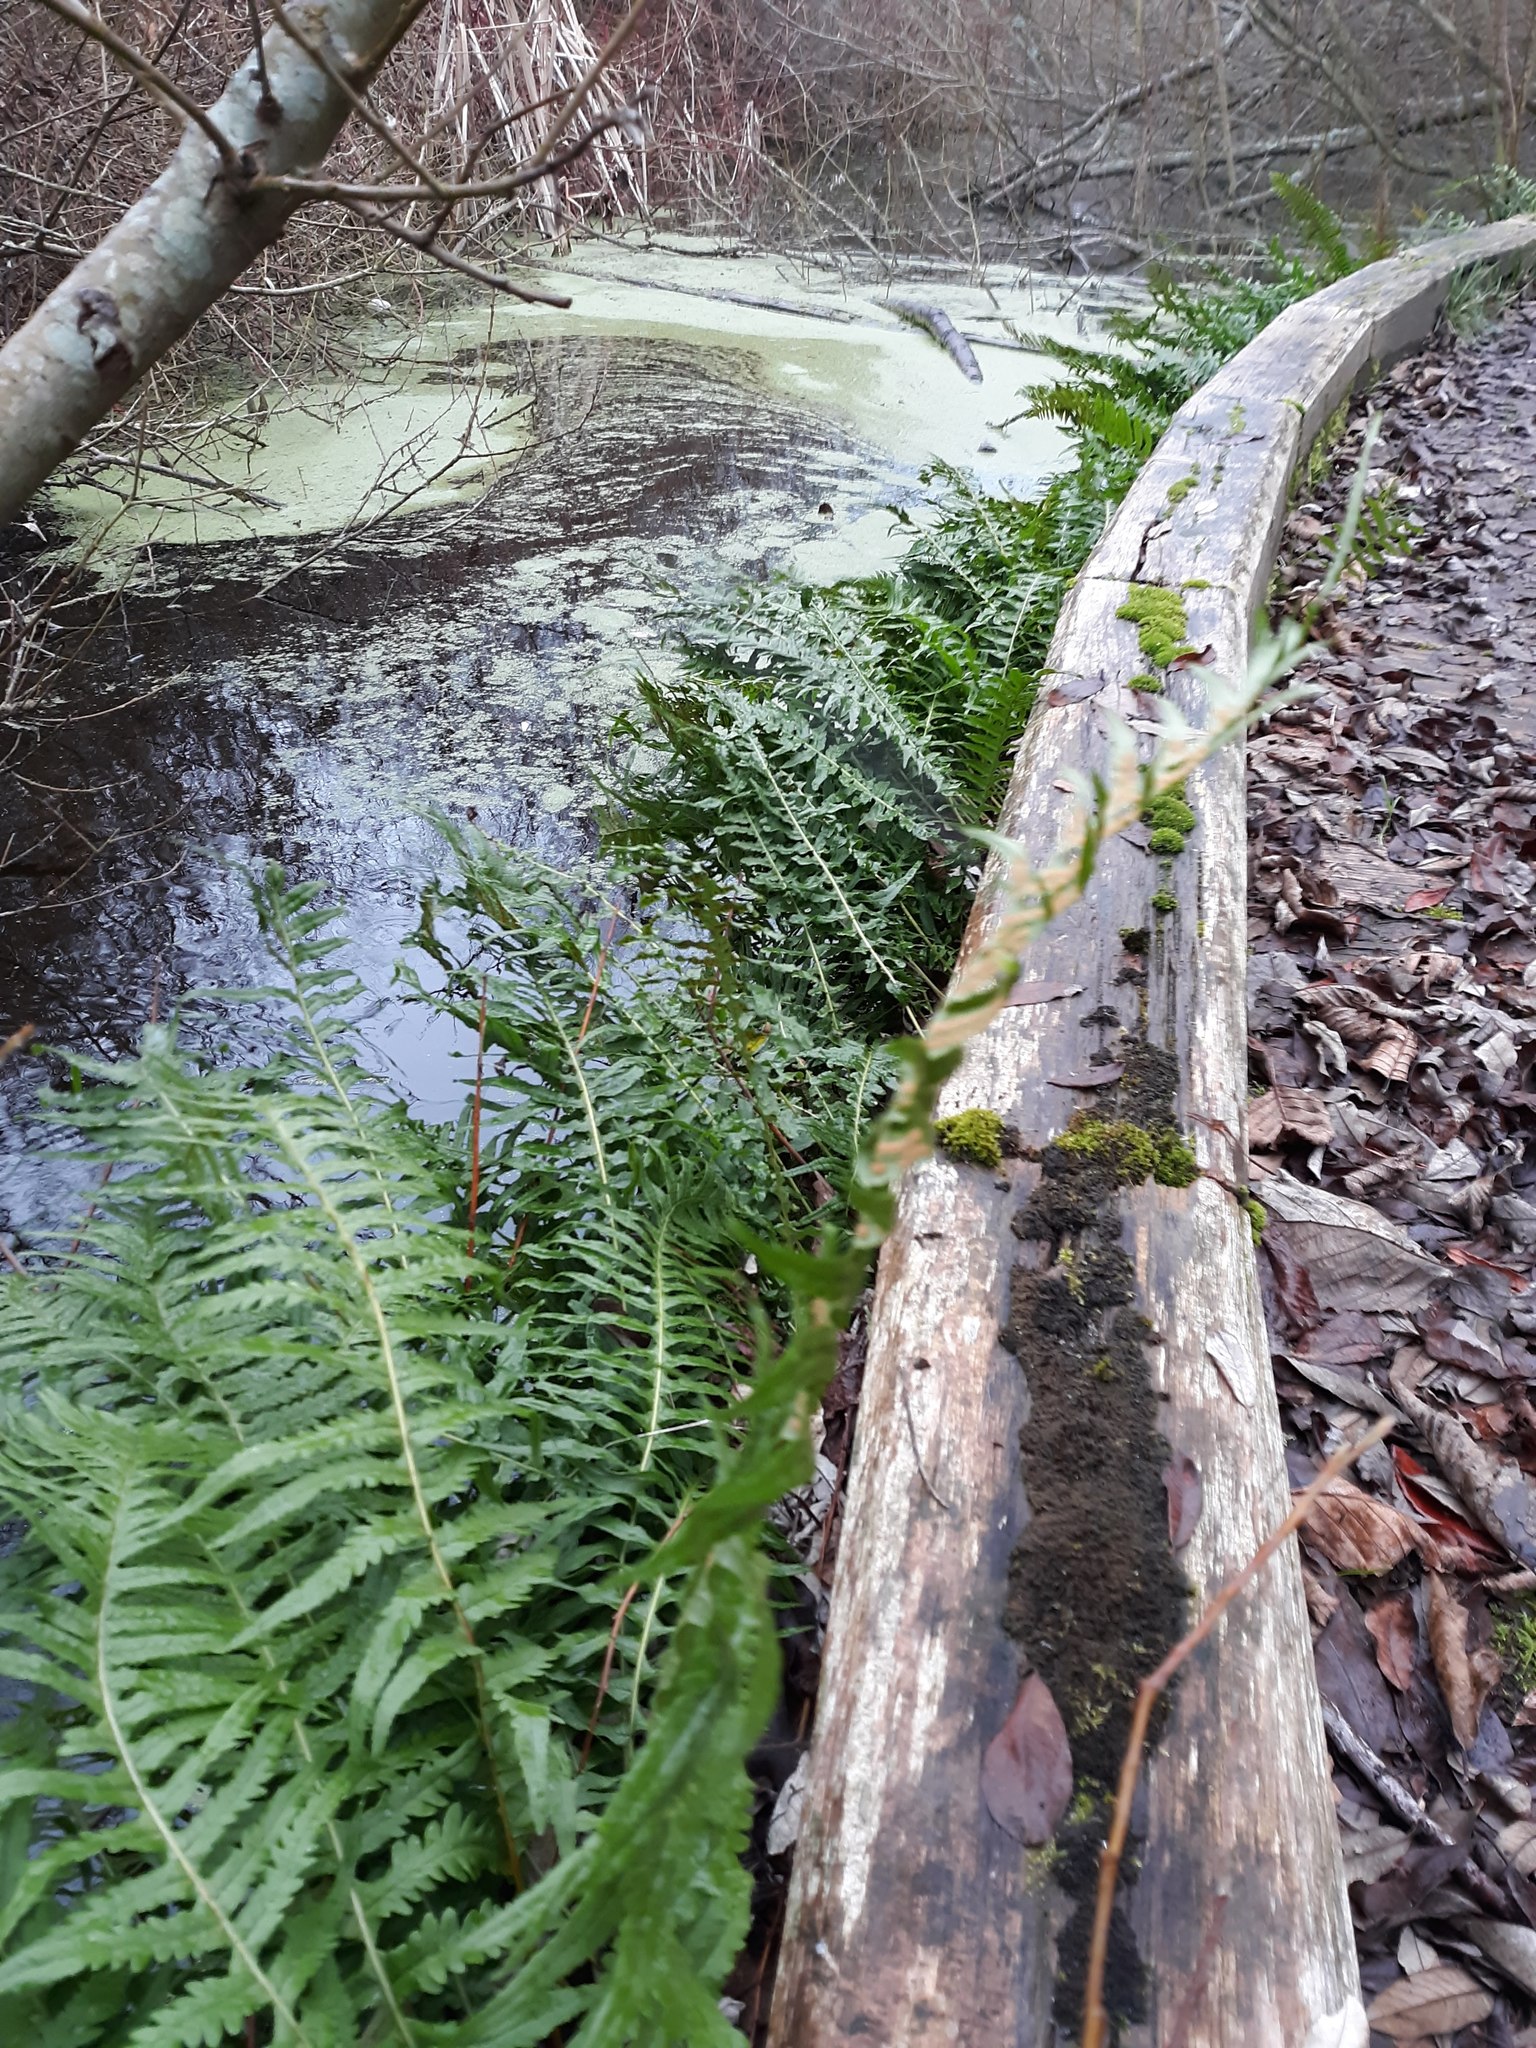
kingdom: Plantae
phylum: Tracheophyta
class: Polypodiopsida
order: Polypodiales
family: Polypodiaceae
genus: Polypodium
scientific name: Polypodium glycyrrhiza
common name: Licorice fern
